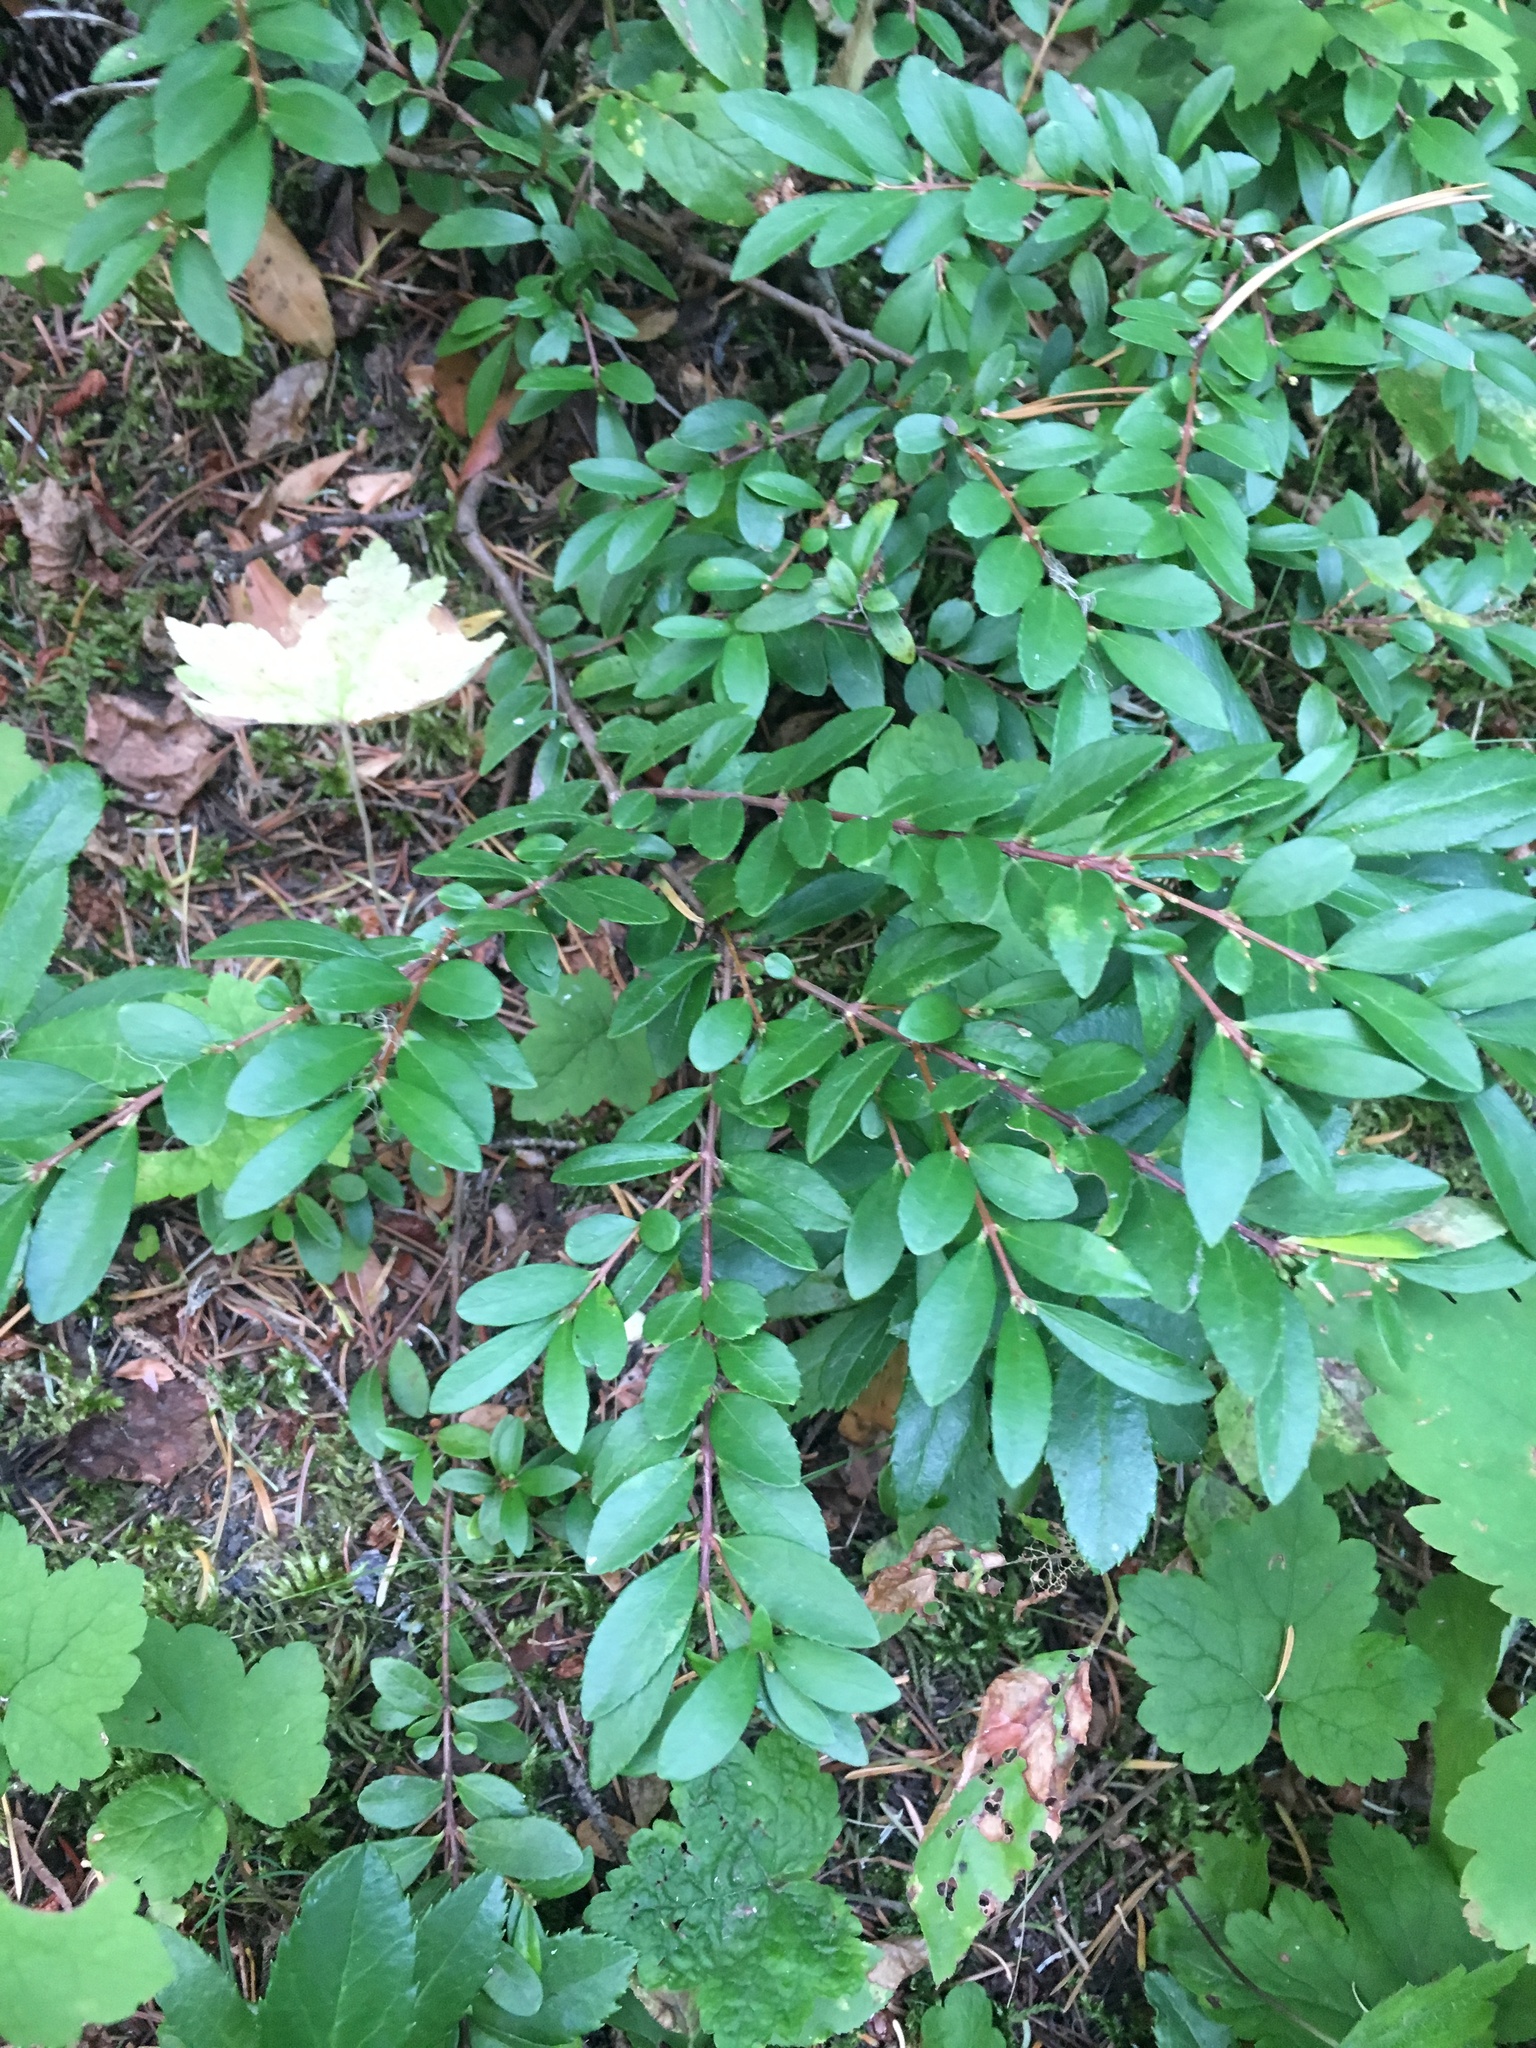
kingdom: Plantae
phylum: Tracheophyta
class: Magnoliopsida
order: Celastrales
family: Celastraceae
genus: Paxistima
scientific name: Paxistima myrsinites
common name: Mountain-lover
